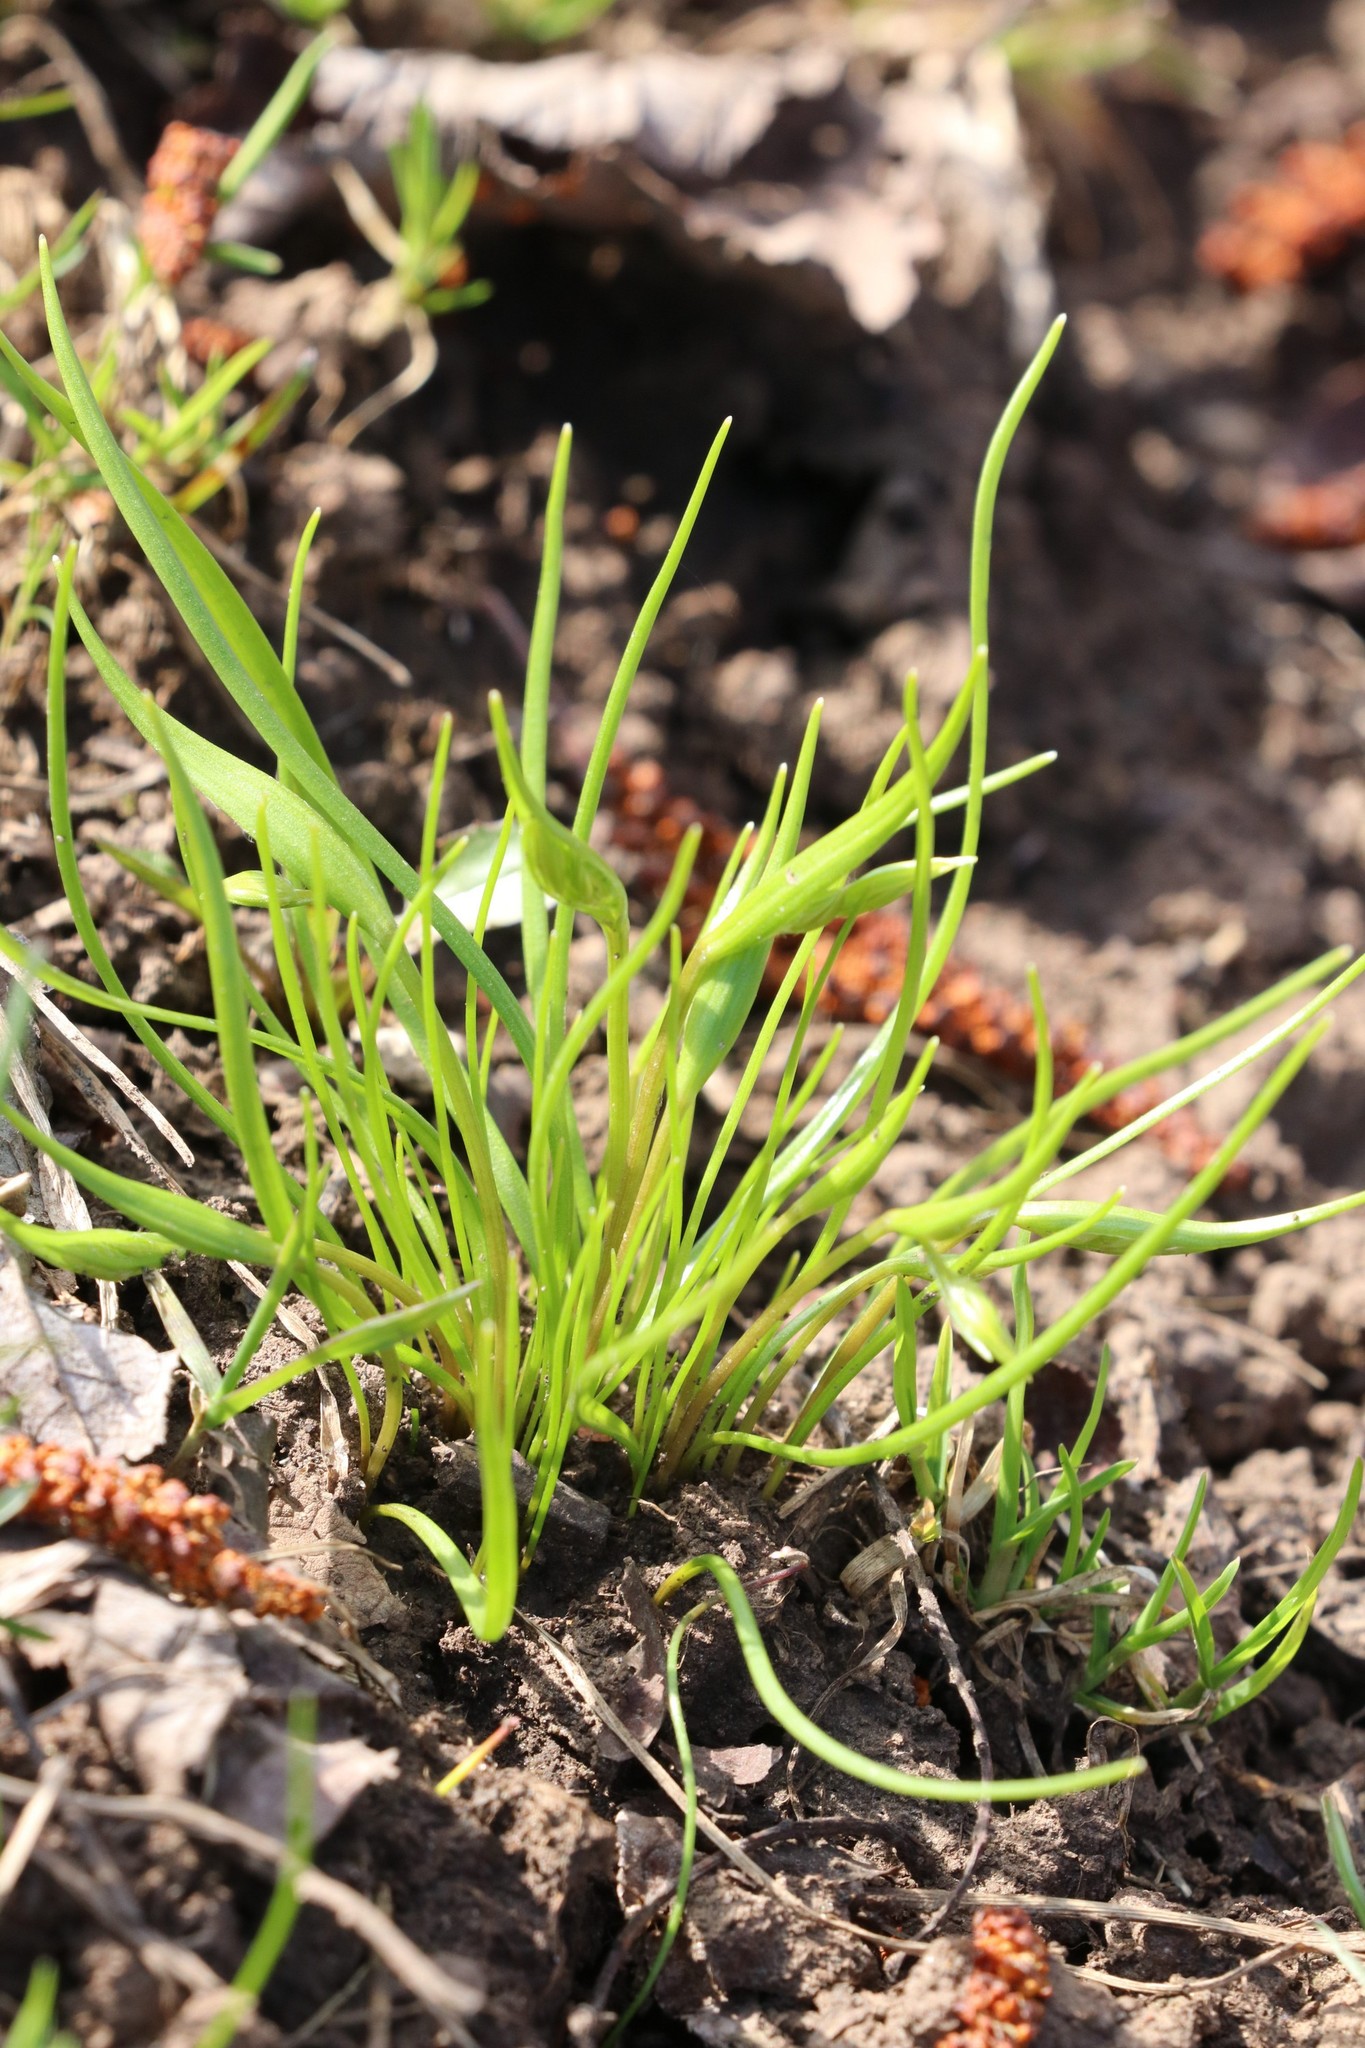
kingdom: Plantae
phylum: Tracheophyta
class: Liliopsida
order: Liliales
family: Liliaceae
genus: Gagea
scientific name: Gagea minima
